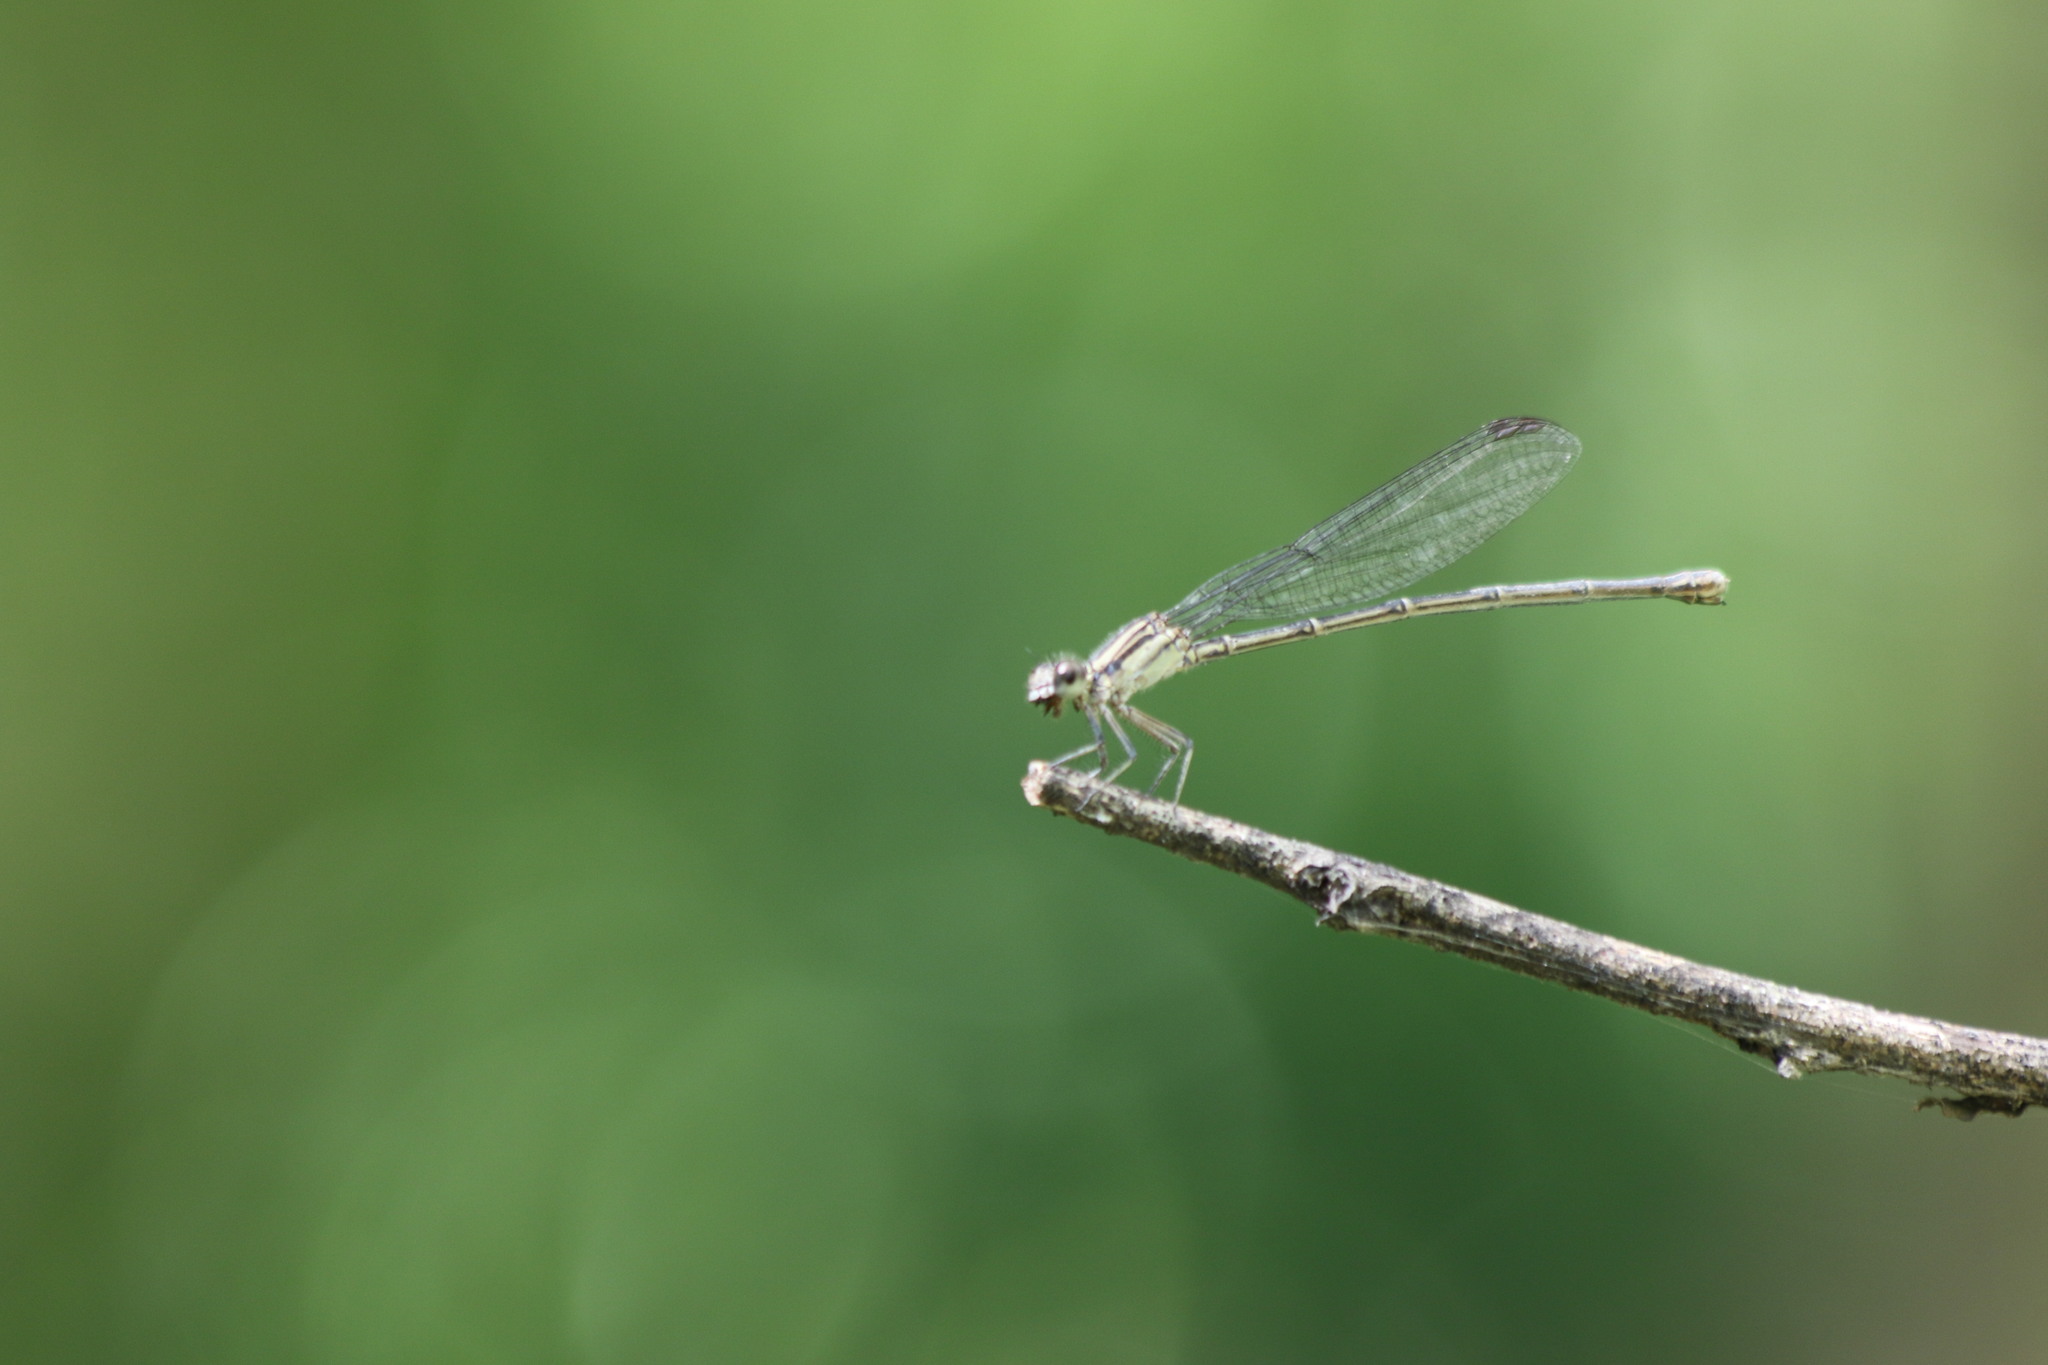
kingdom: Animalia
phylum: Arthropoda
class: Insecta
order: Odonata
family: Coenagrionidae
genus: Argia
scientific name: Argia translata
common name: Dusky dancer
